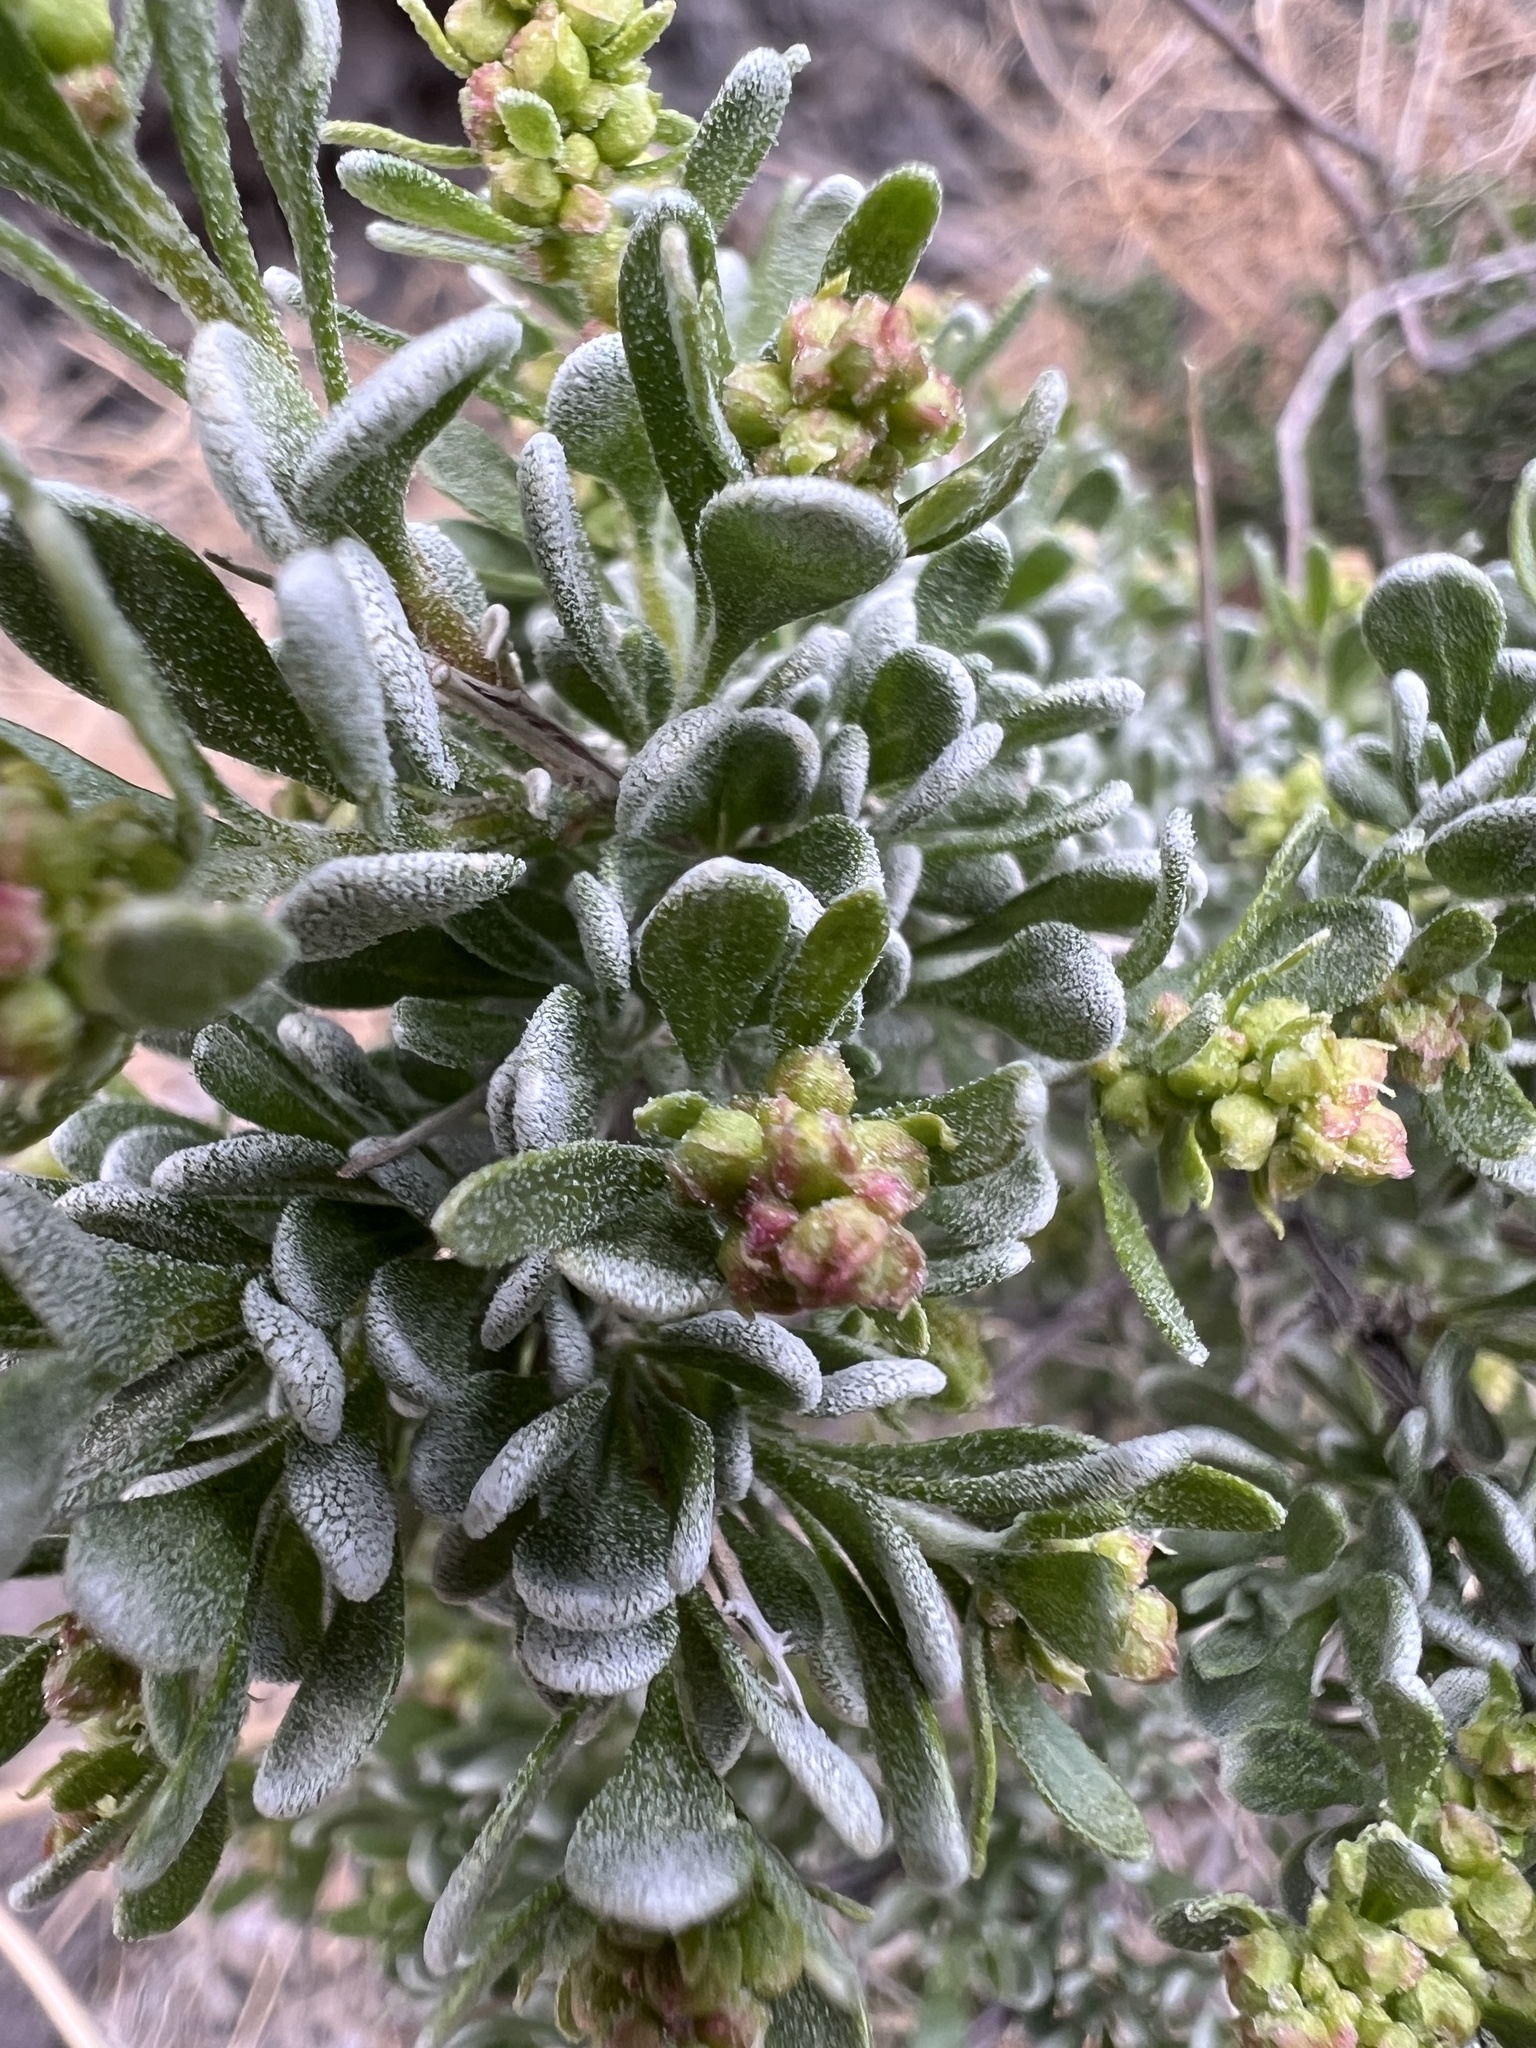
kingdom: Plantae
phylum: Tracheophyta
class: Magnoliopsida
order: Caryophyllales
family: Amaranthaceae
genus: Grayia
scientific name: Grayia spinosa
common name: Spiny hopsage
